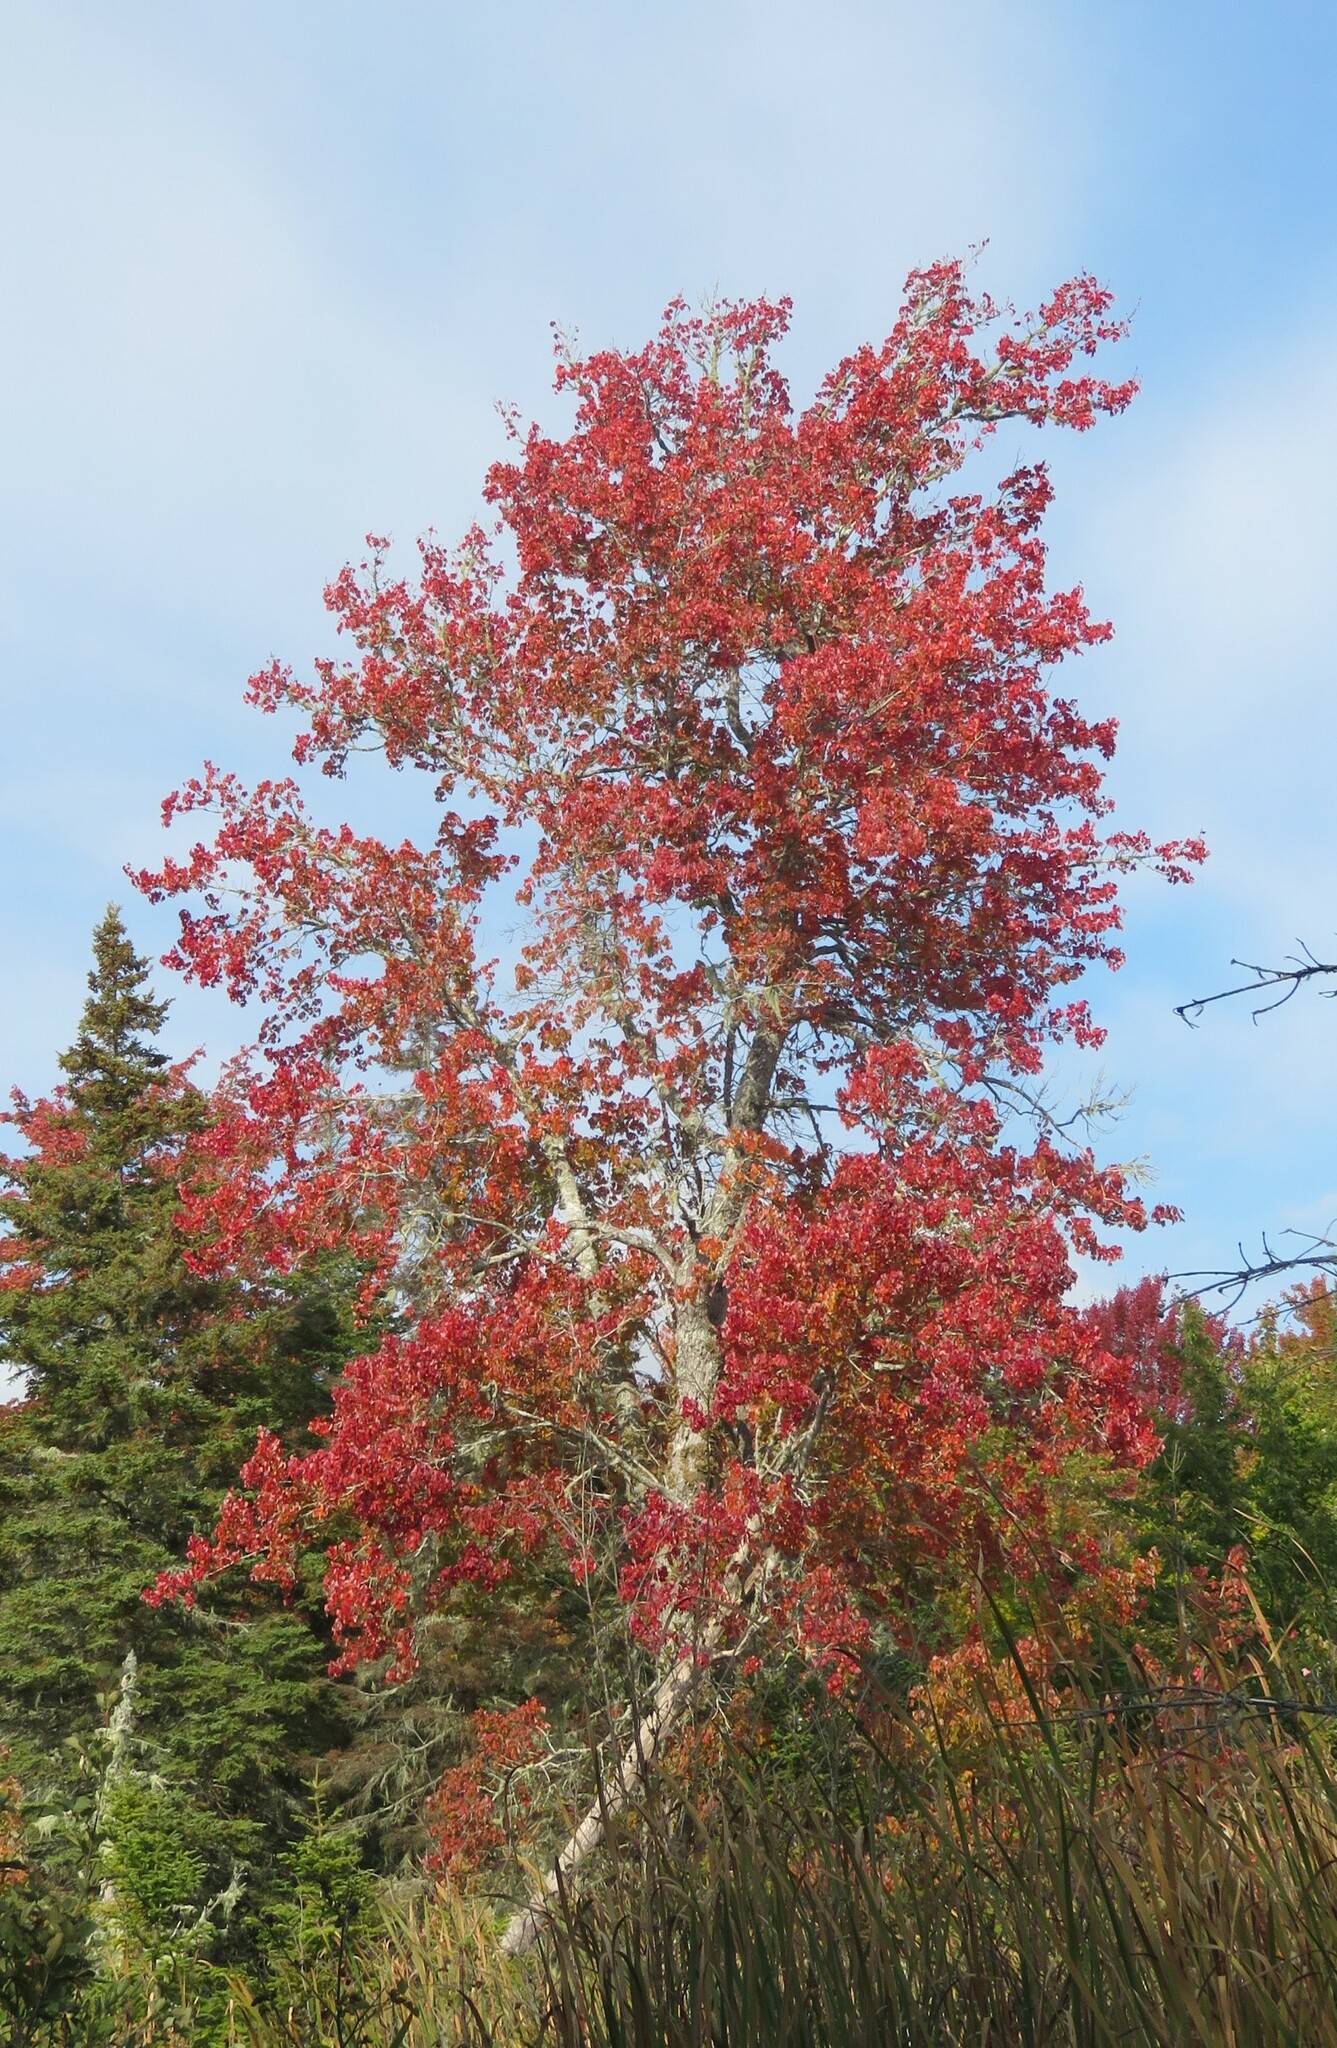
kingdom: Plantae
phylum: Tracheophyta
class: Magnoliopsida
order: Sapindales
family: Sapindaceae
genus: Acer
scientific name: Acer rubrum
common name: Red maple
